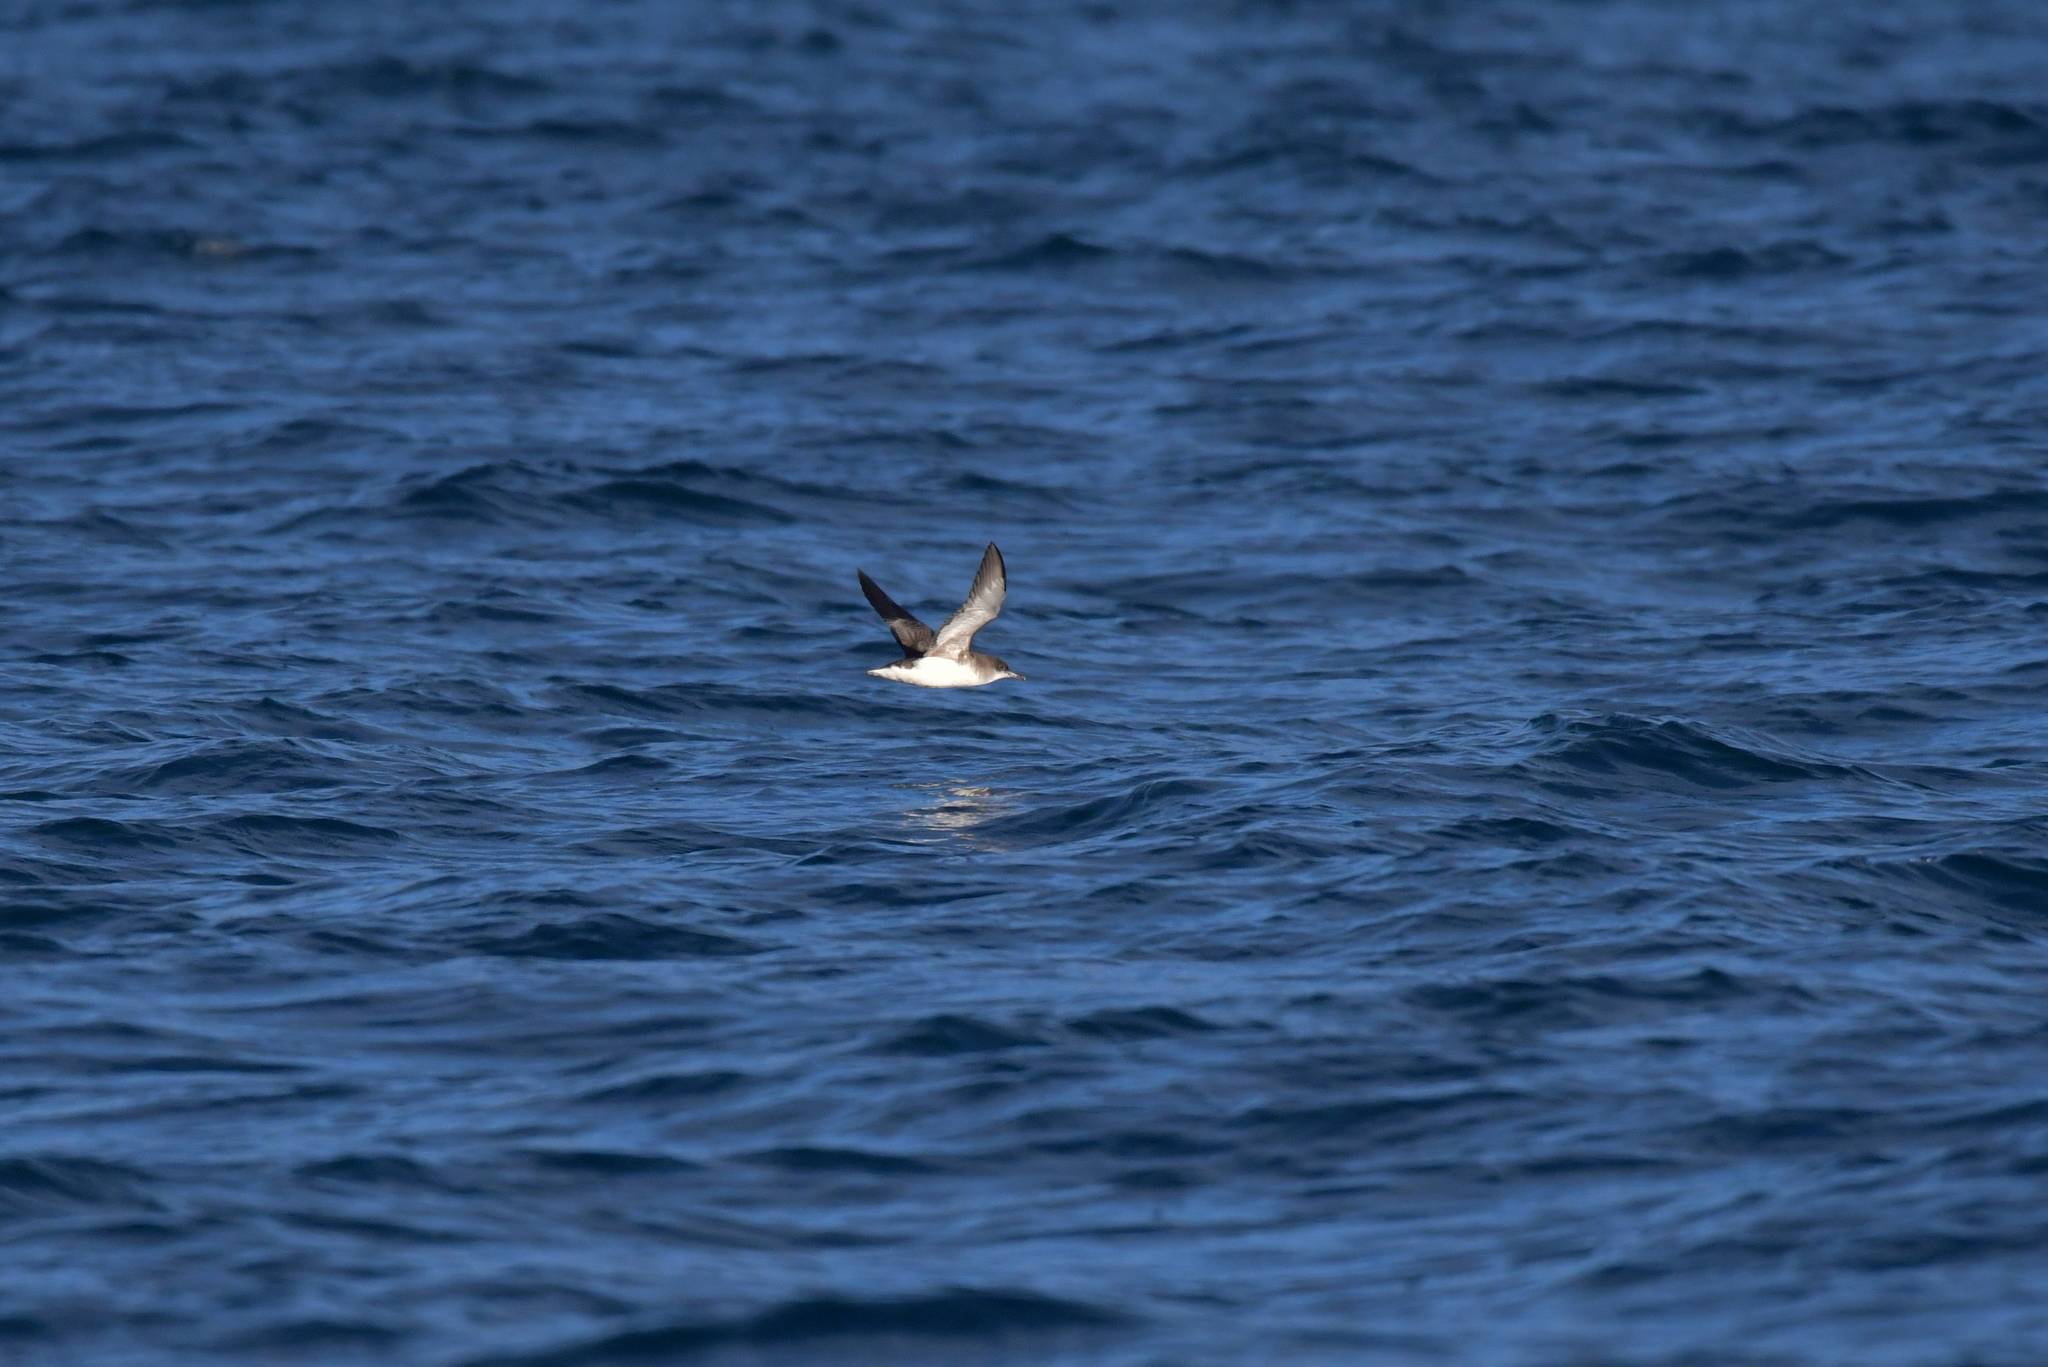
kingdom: Animalia
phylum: Chordata
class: Aves
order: Procellariiformes
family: Procellariidae
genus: Puffinus
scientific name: Puffinus gavia
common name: Fluttering shearwater
